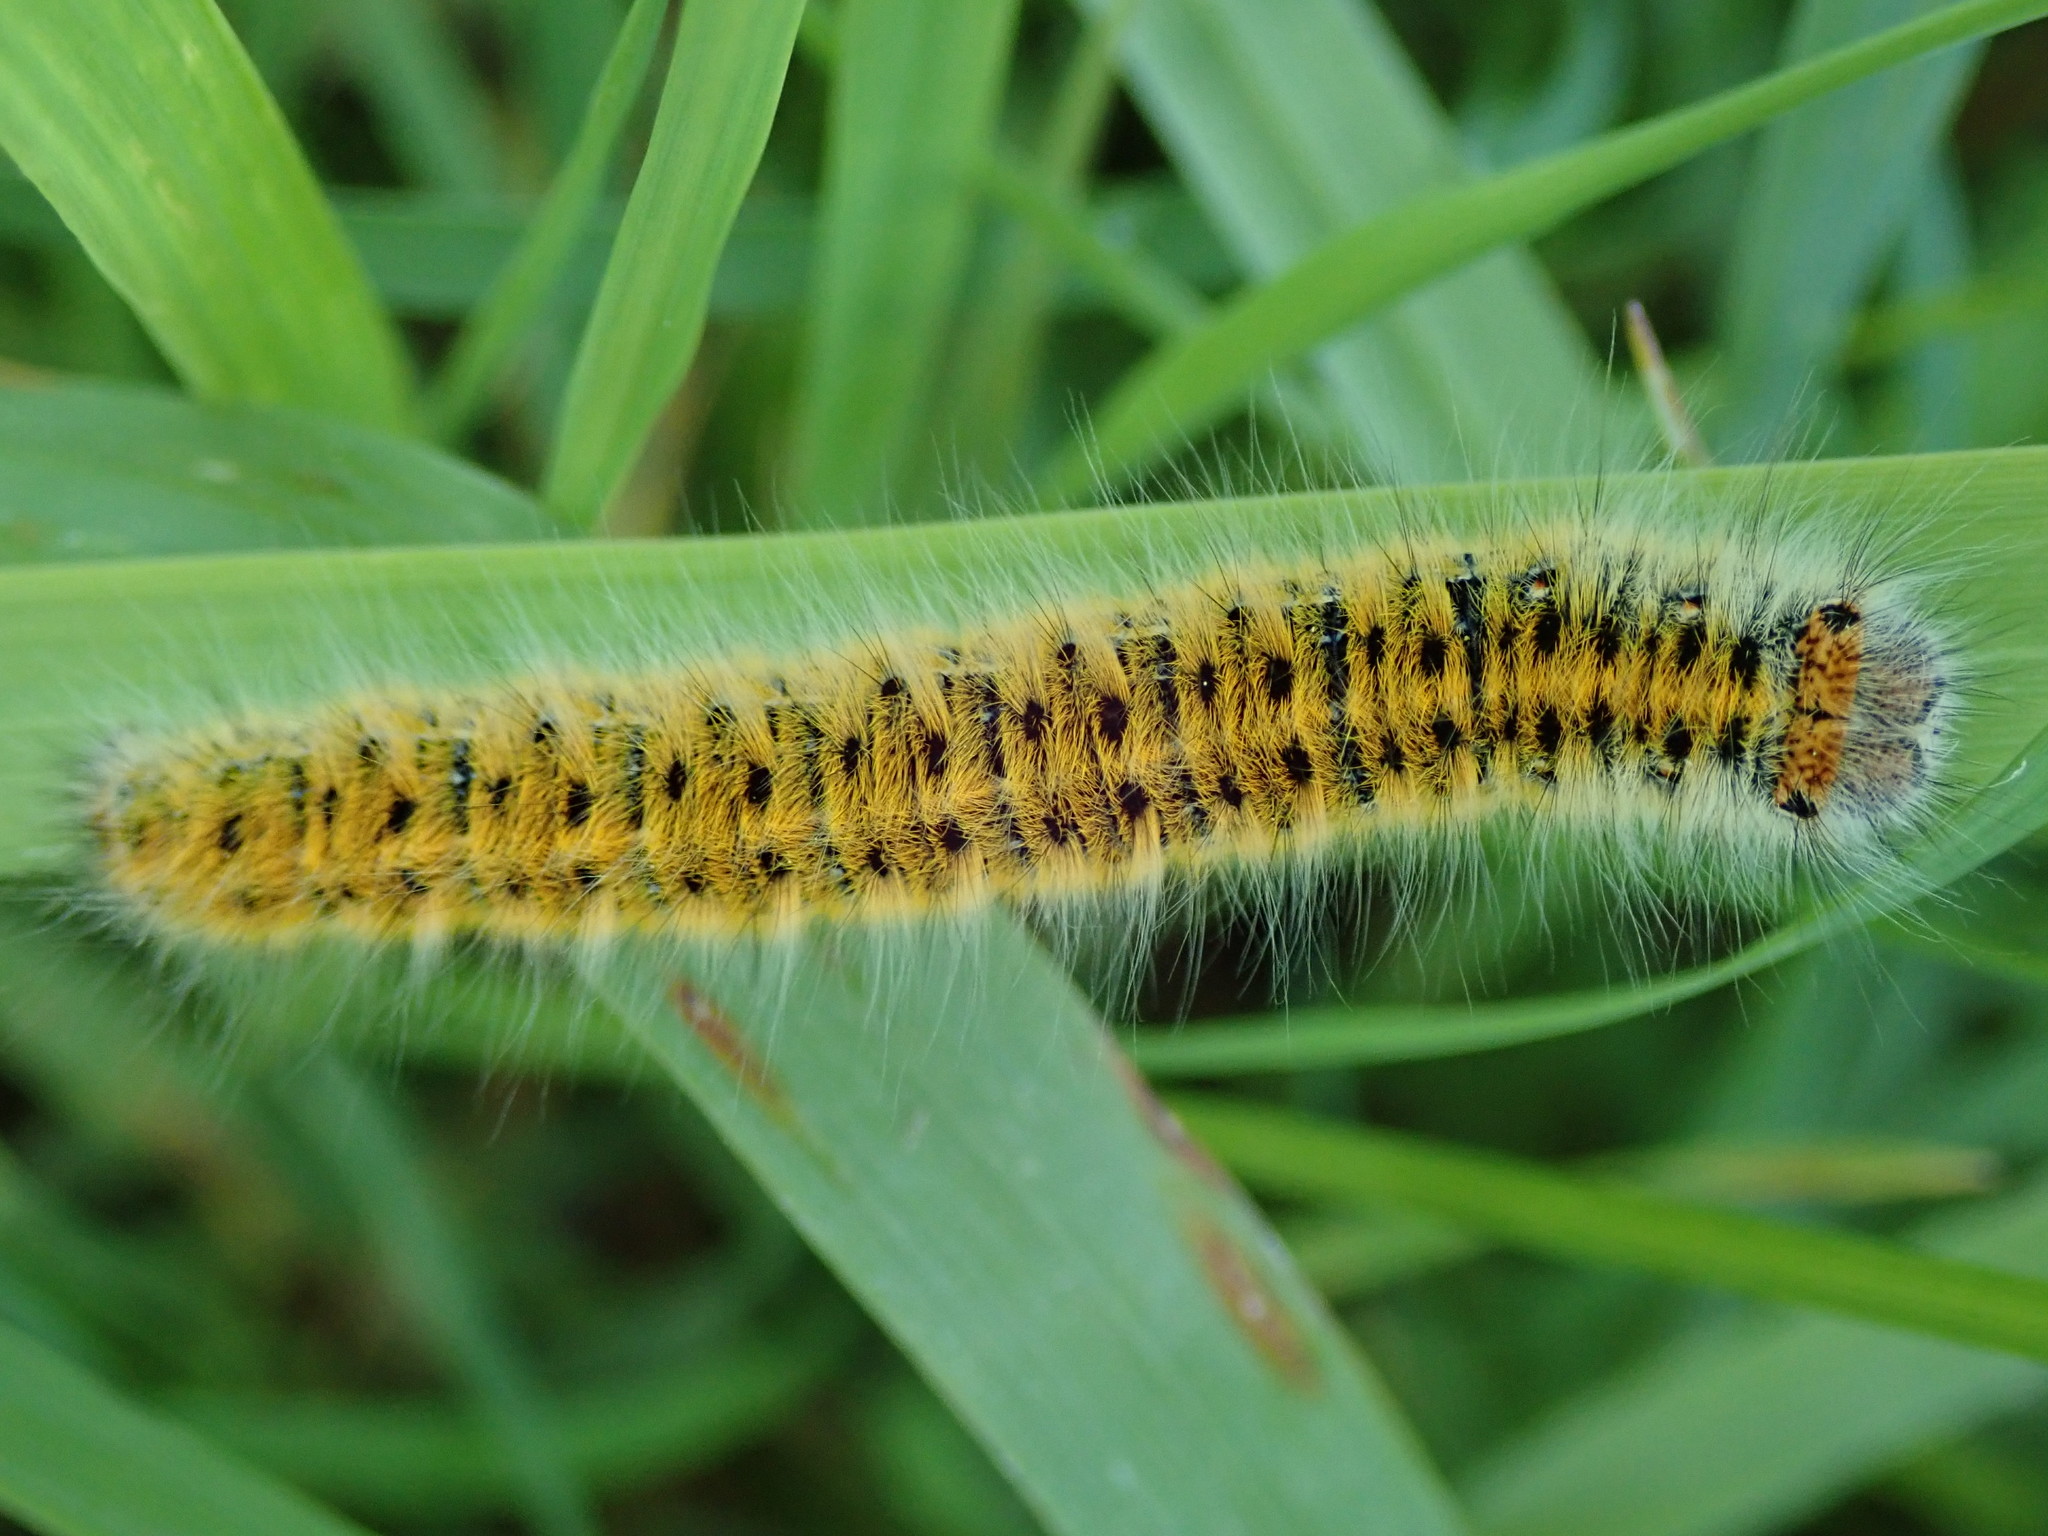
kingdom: Animalia
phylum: Arthropoda
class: Insecta
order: Lepidoptera
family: Lasiocampidae
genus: Lasiocampa
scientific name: Lasiocampa trifolii
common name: Grass eggar
